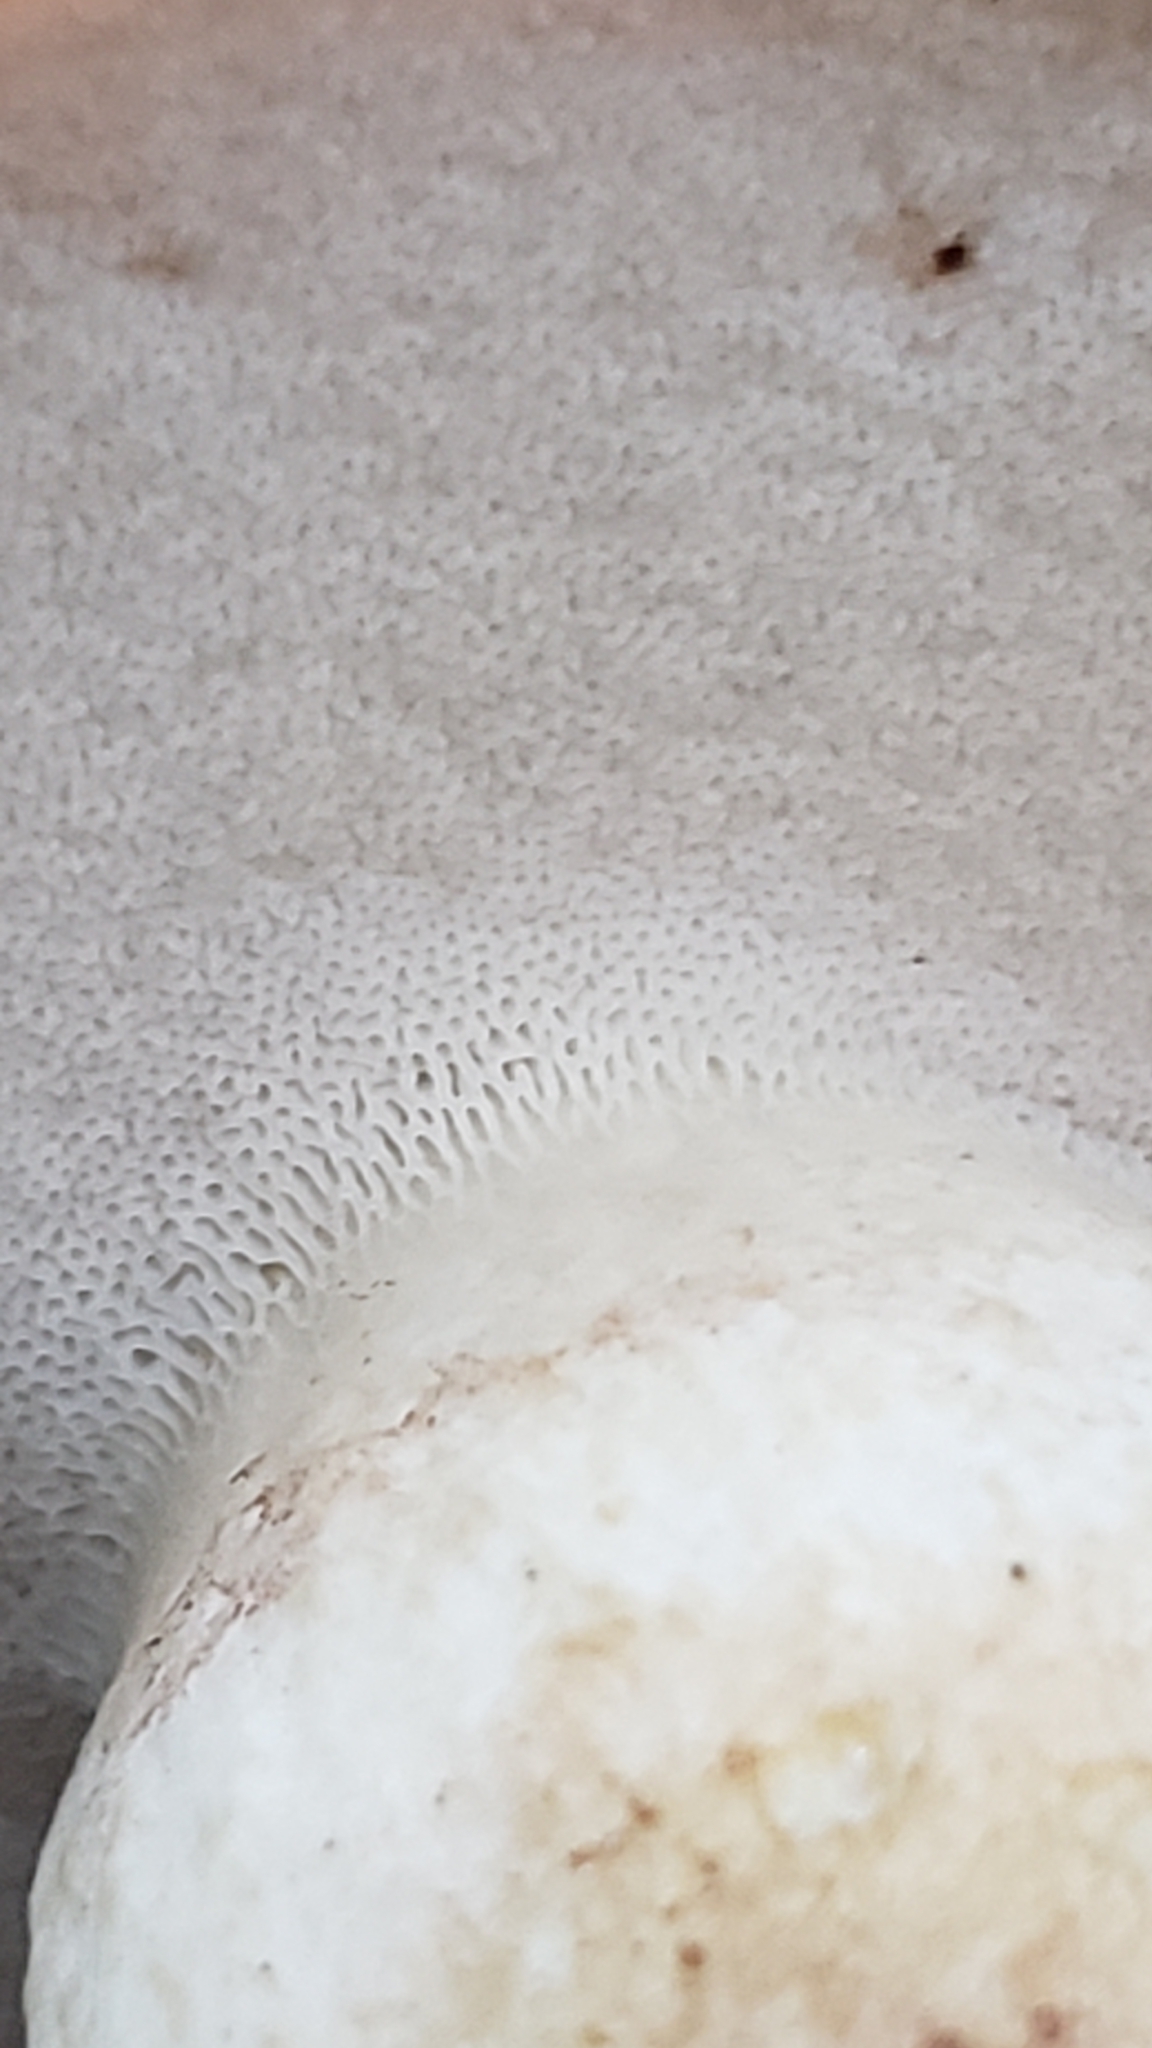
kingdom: Fungi
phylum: Basidiomycota
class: Agaricomycetes
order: Boletales
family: Boletaceae
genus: Tylopilus
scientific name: Tylopilus balloui
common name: Burnt-orange bolete
